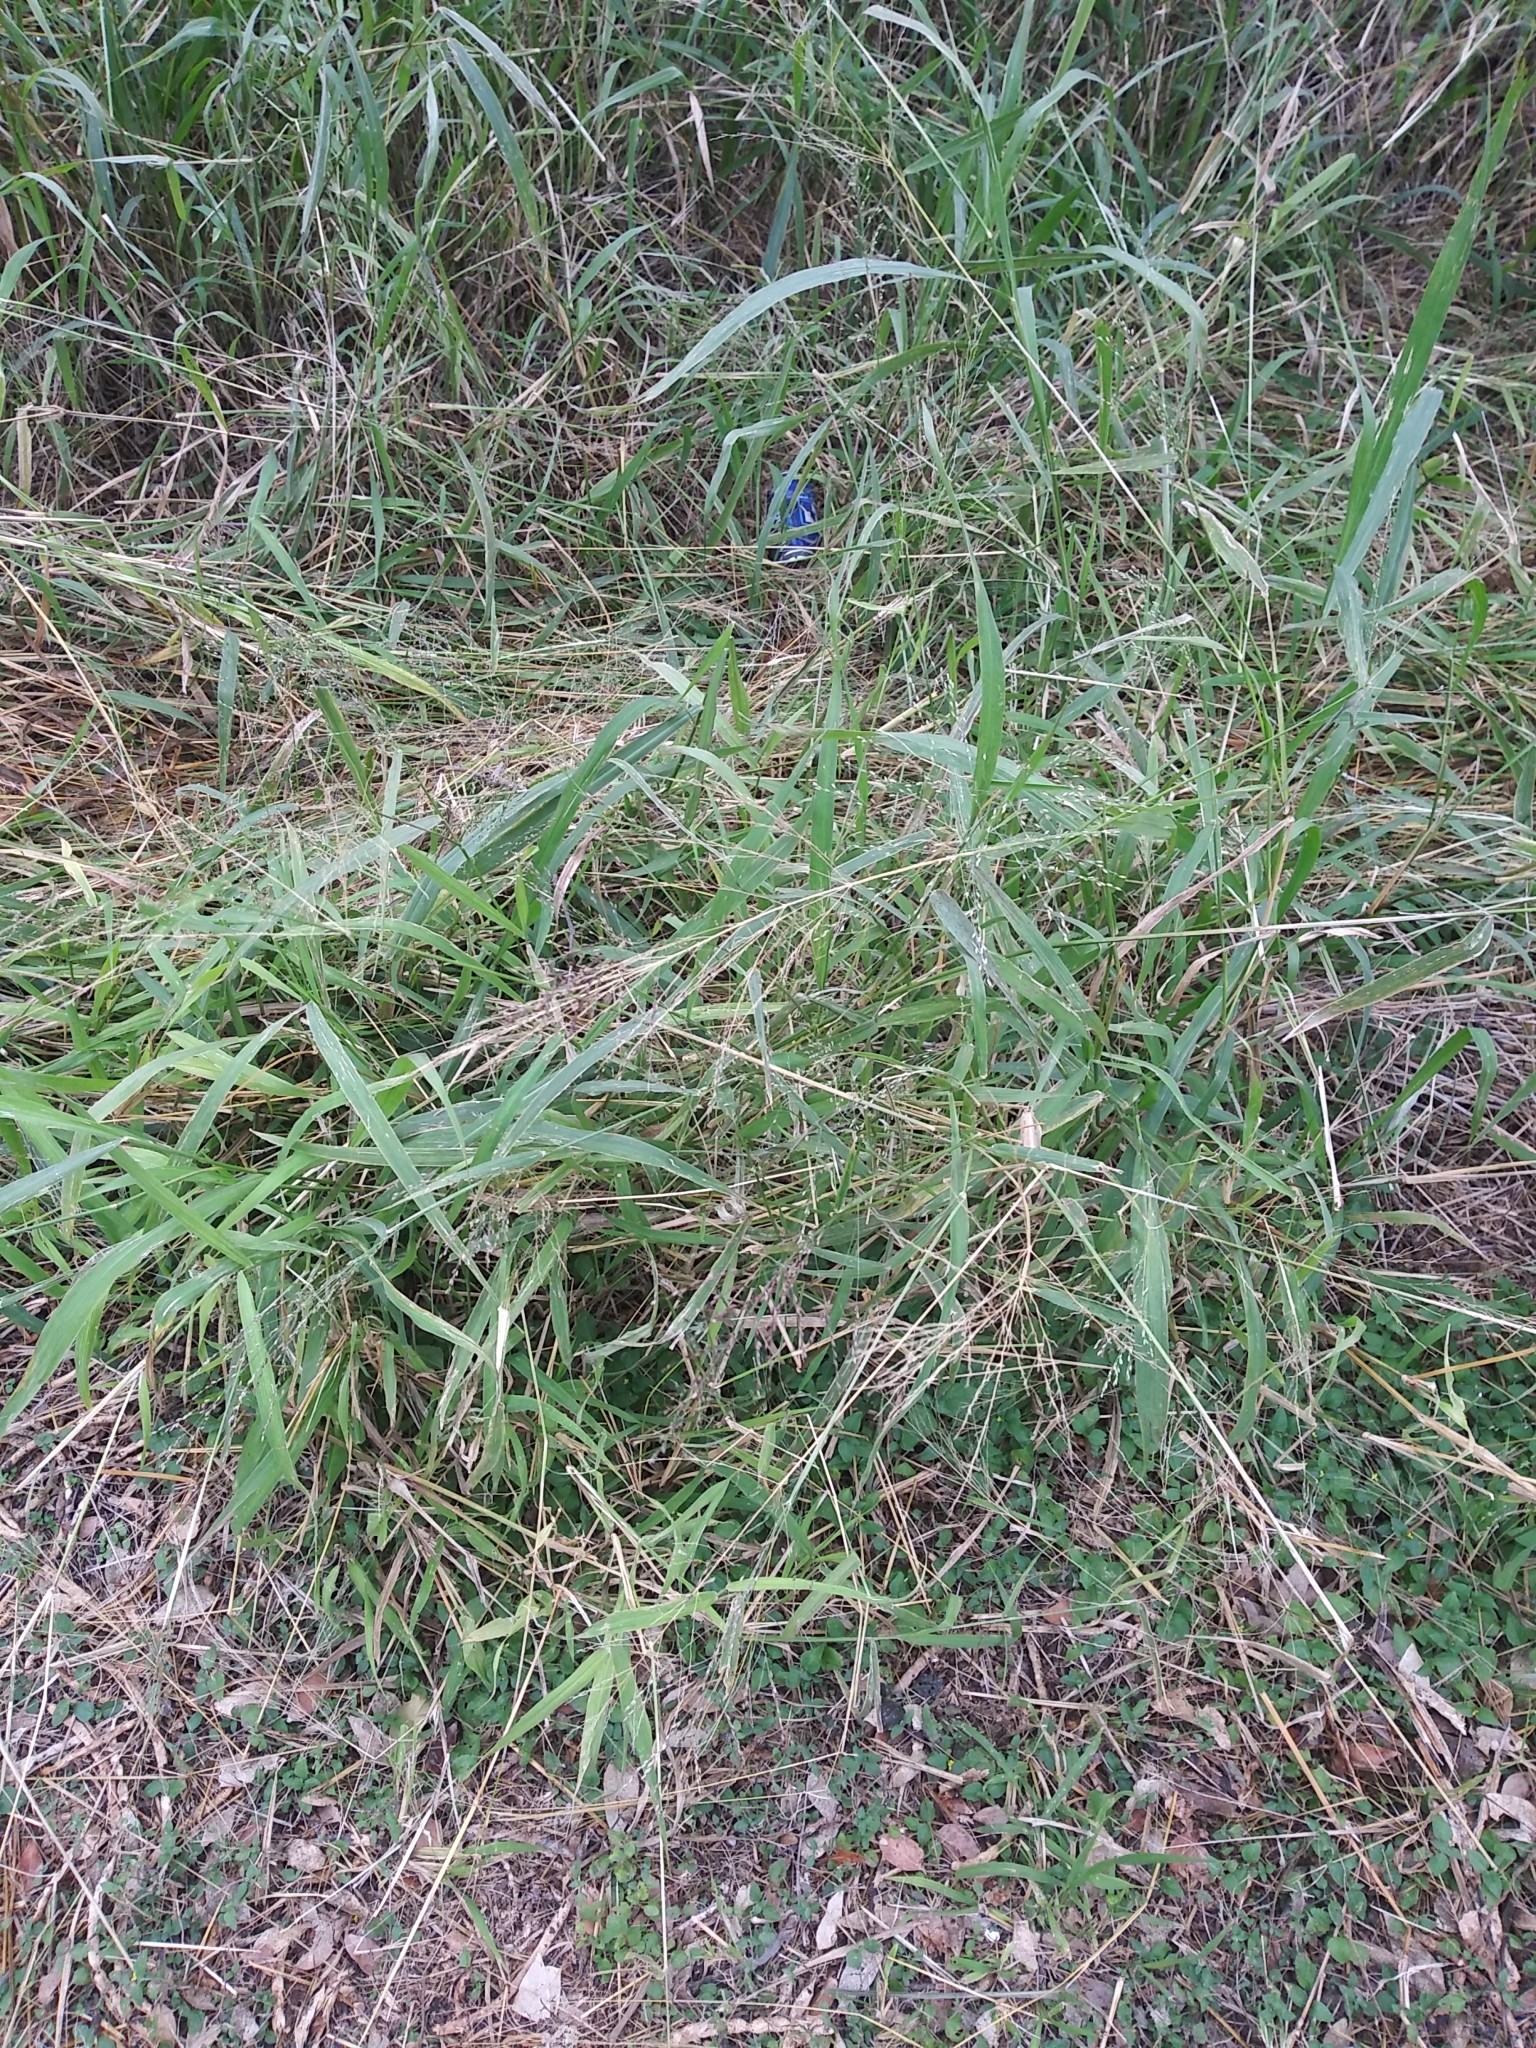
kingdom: Plantae
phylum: Tracheophyta
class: Liliopsida
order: Poales
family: Poaceae
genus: Megathyrsus
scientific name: Megathyrsus maximus
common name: Guineagrass
